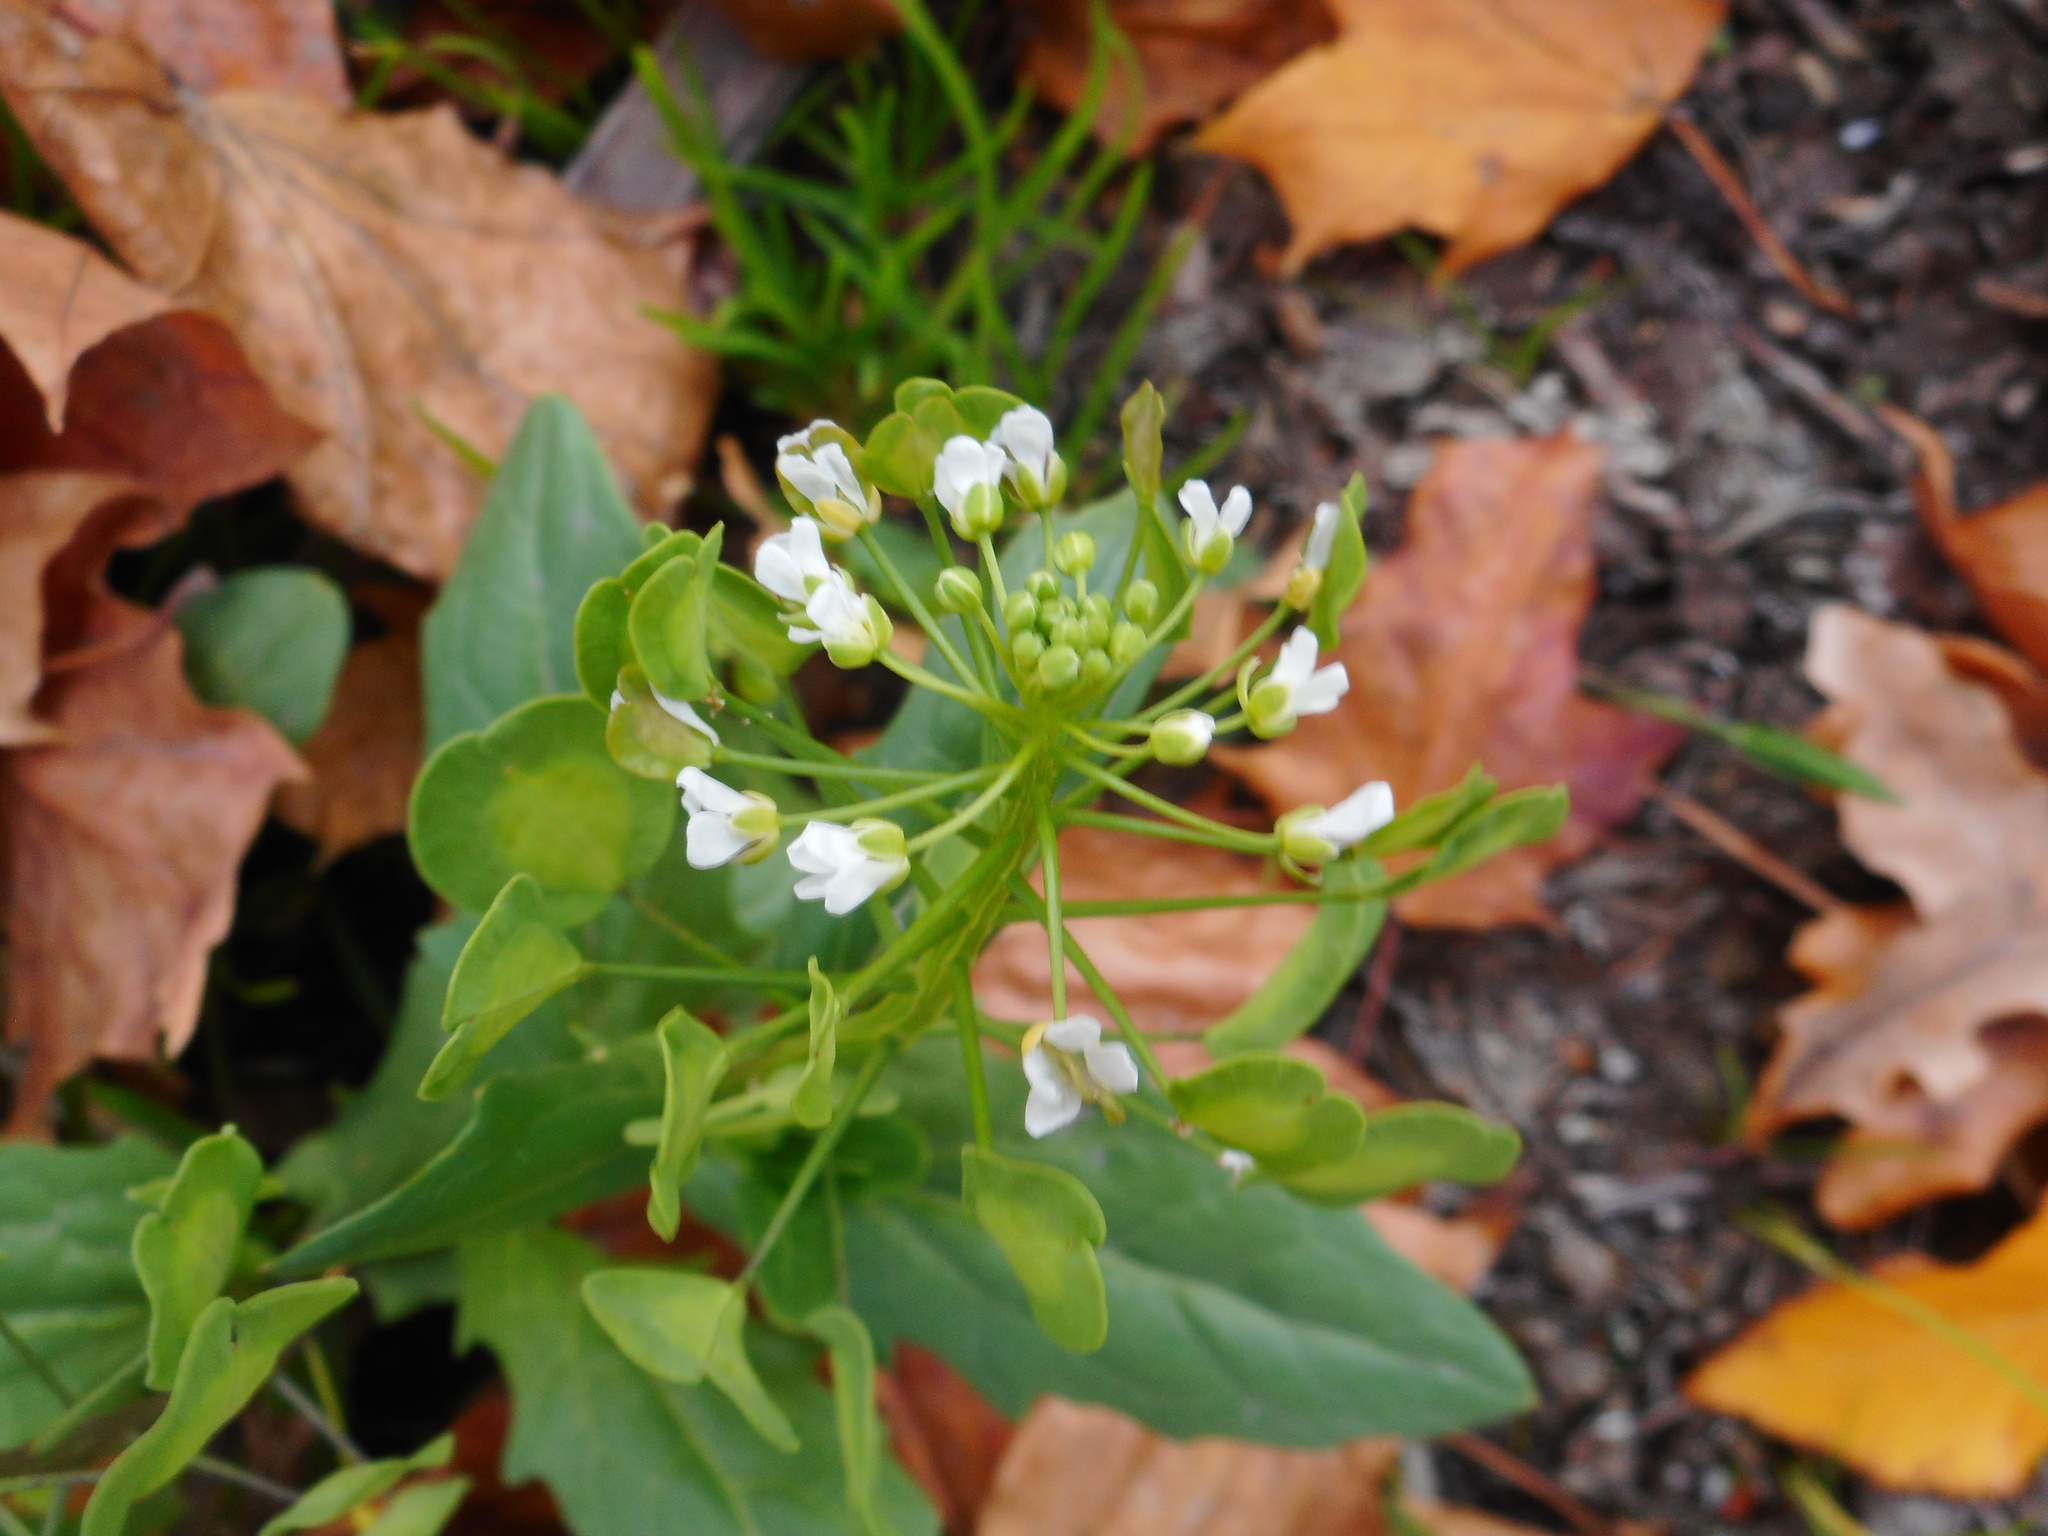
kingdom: Plantae
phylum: Tracheophyta
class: Magnoliopsida
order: Brassicales
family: Brassicaceae
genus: Thlaspi
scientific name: Thlaspi arvense
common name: Field pennycress
